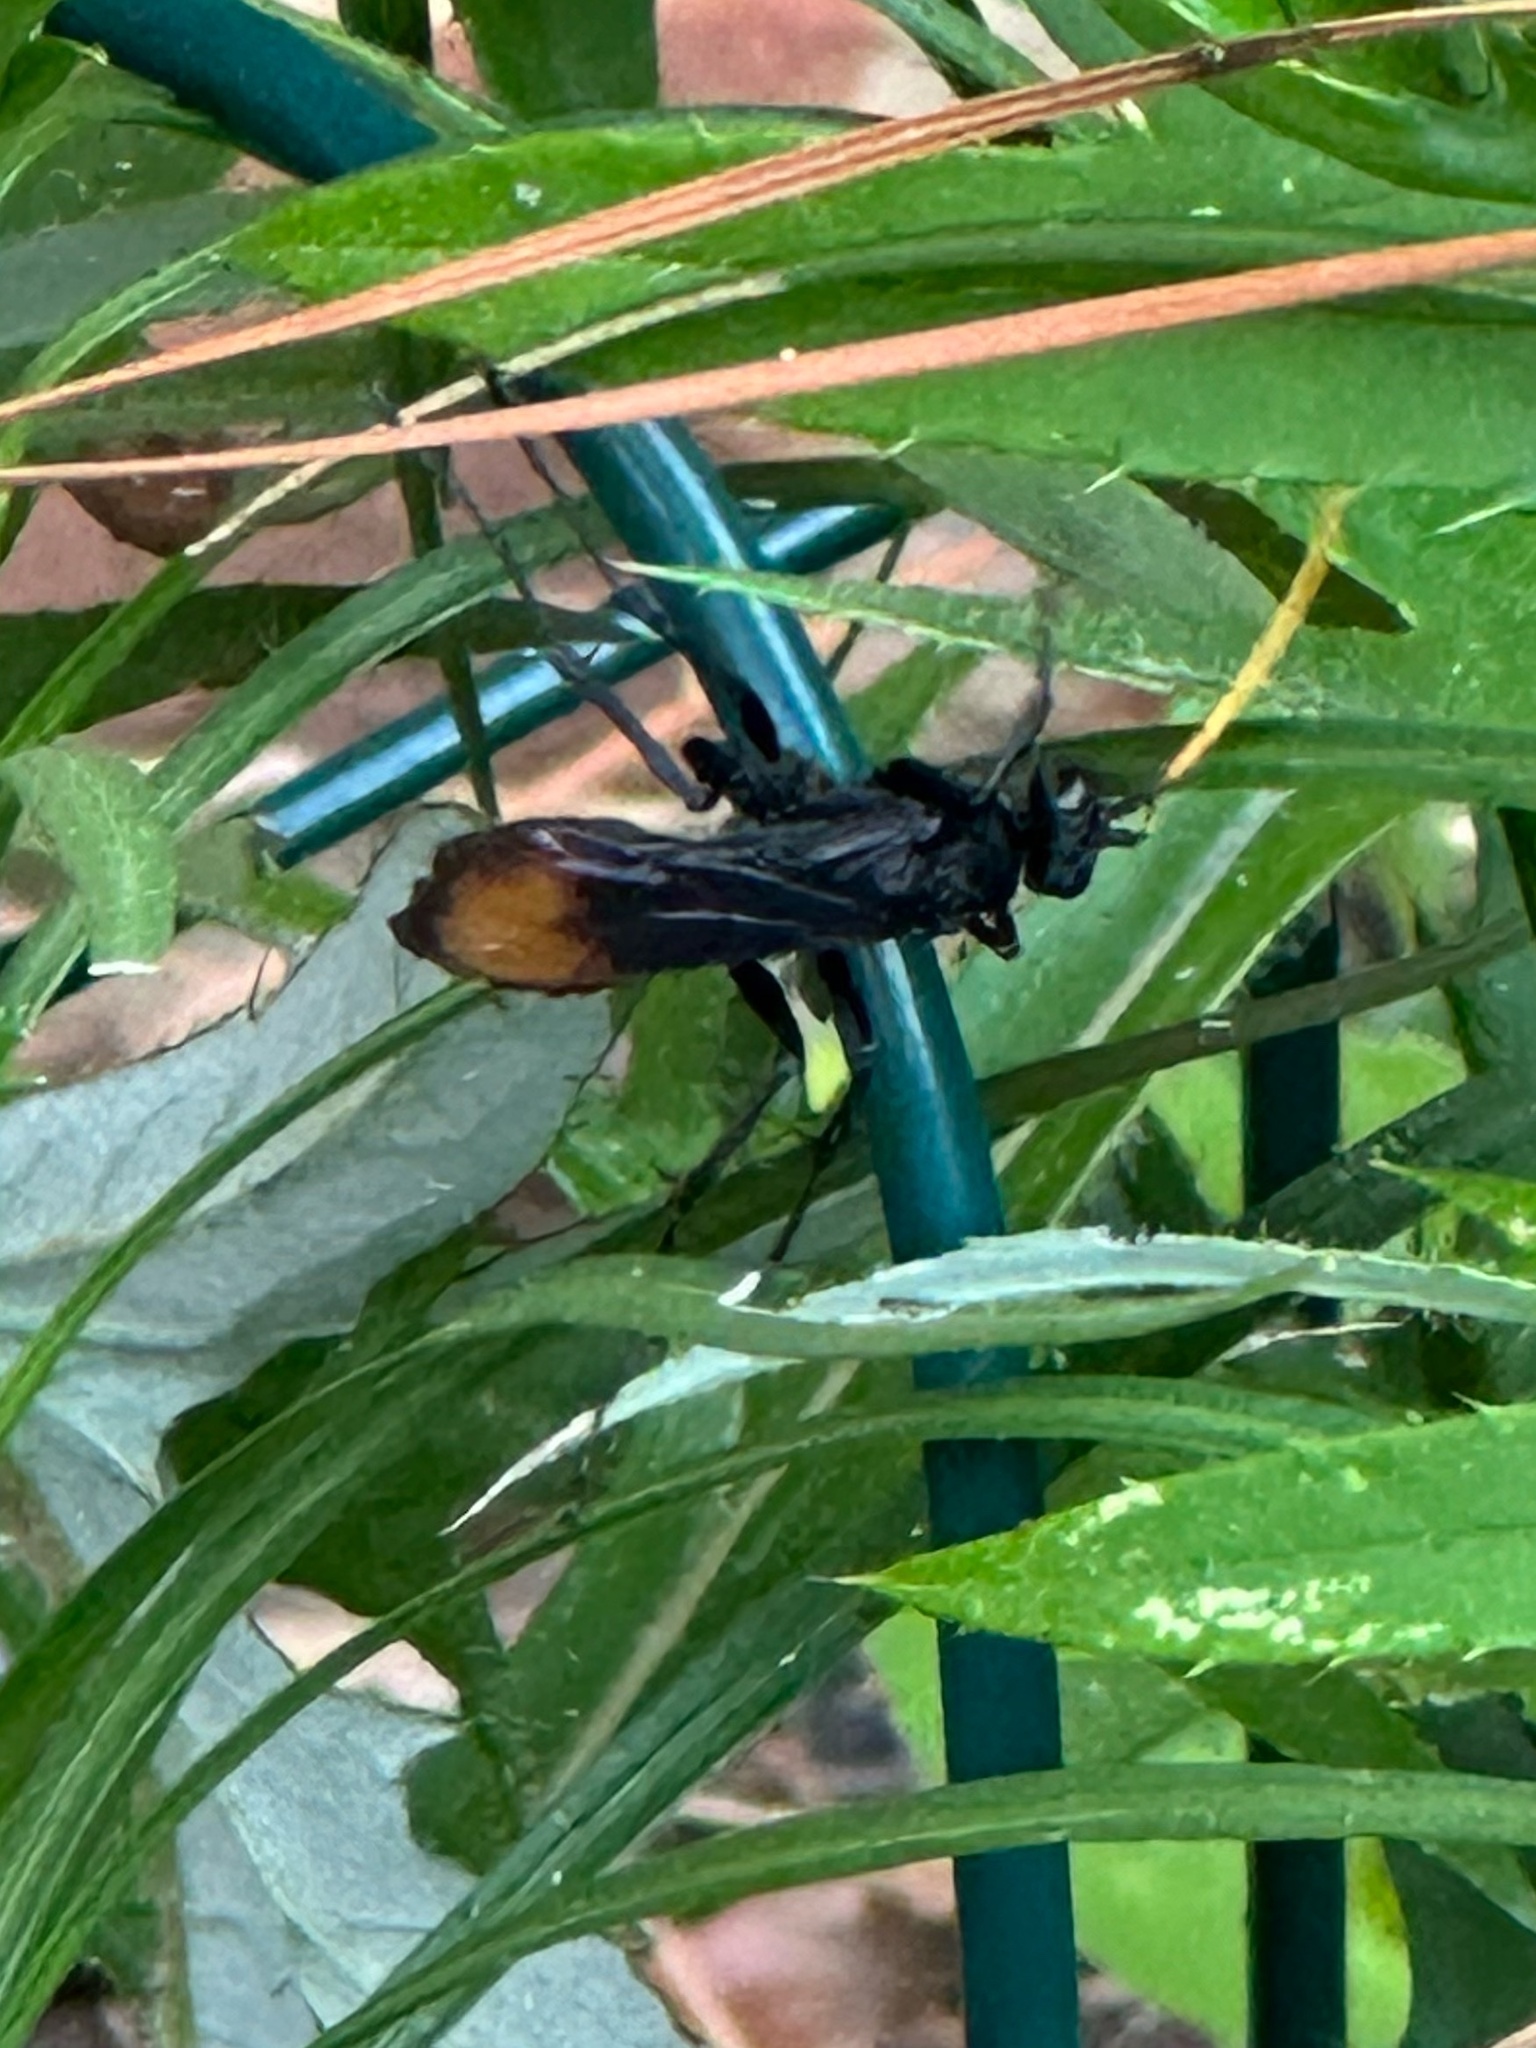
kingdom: Animalia
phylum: Arthropoda
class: Insecta
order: Hymenoptera
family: Pompilidae
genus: Entypus
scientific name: Entypus unifasciatus
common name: Eastern tawny-horned spider wasp
